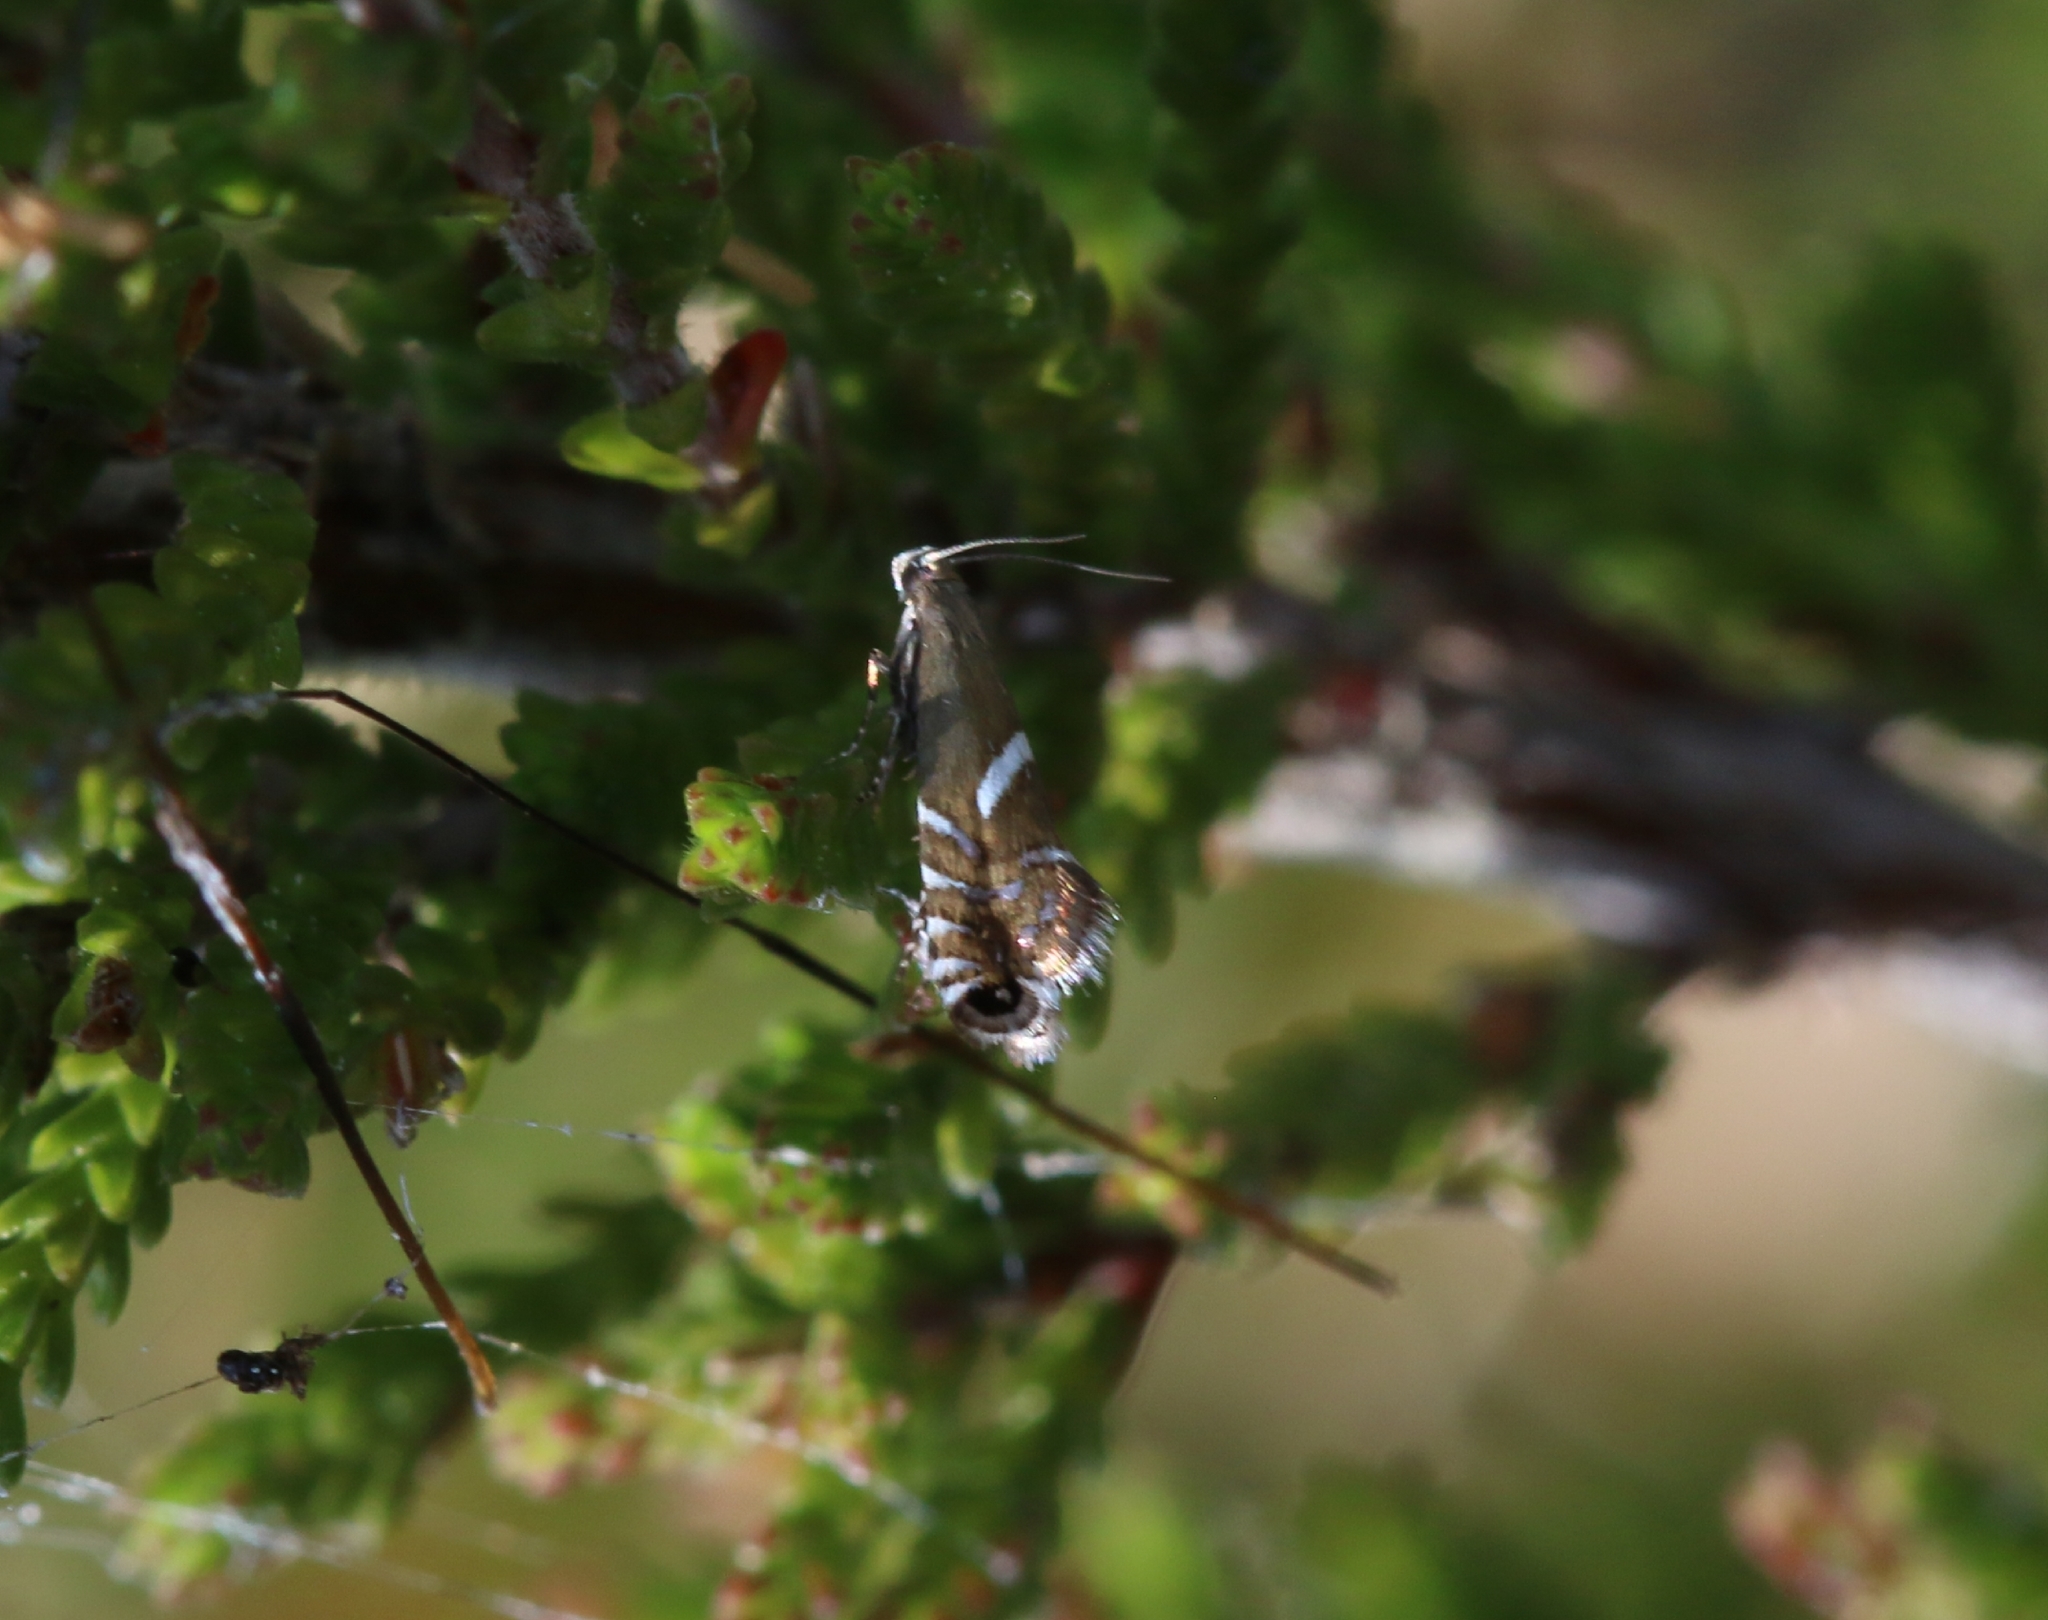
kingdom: Animalia
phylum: Arthropoda
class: Insecta
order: Lepidoptera
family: Glyphipterigidae
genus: Glyphipterix
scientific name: Glyphipterix forsterella
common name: Sedge fanner
